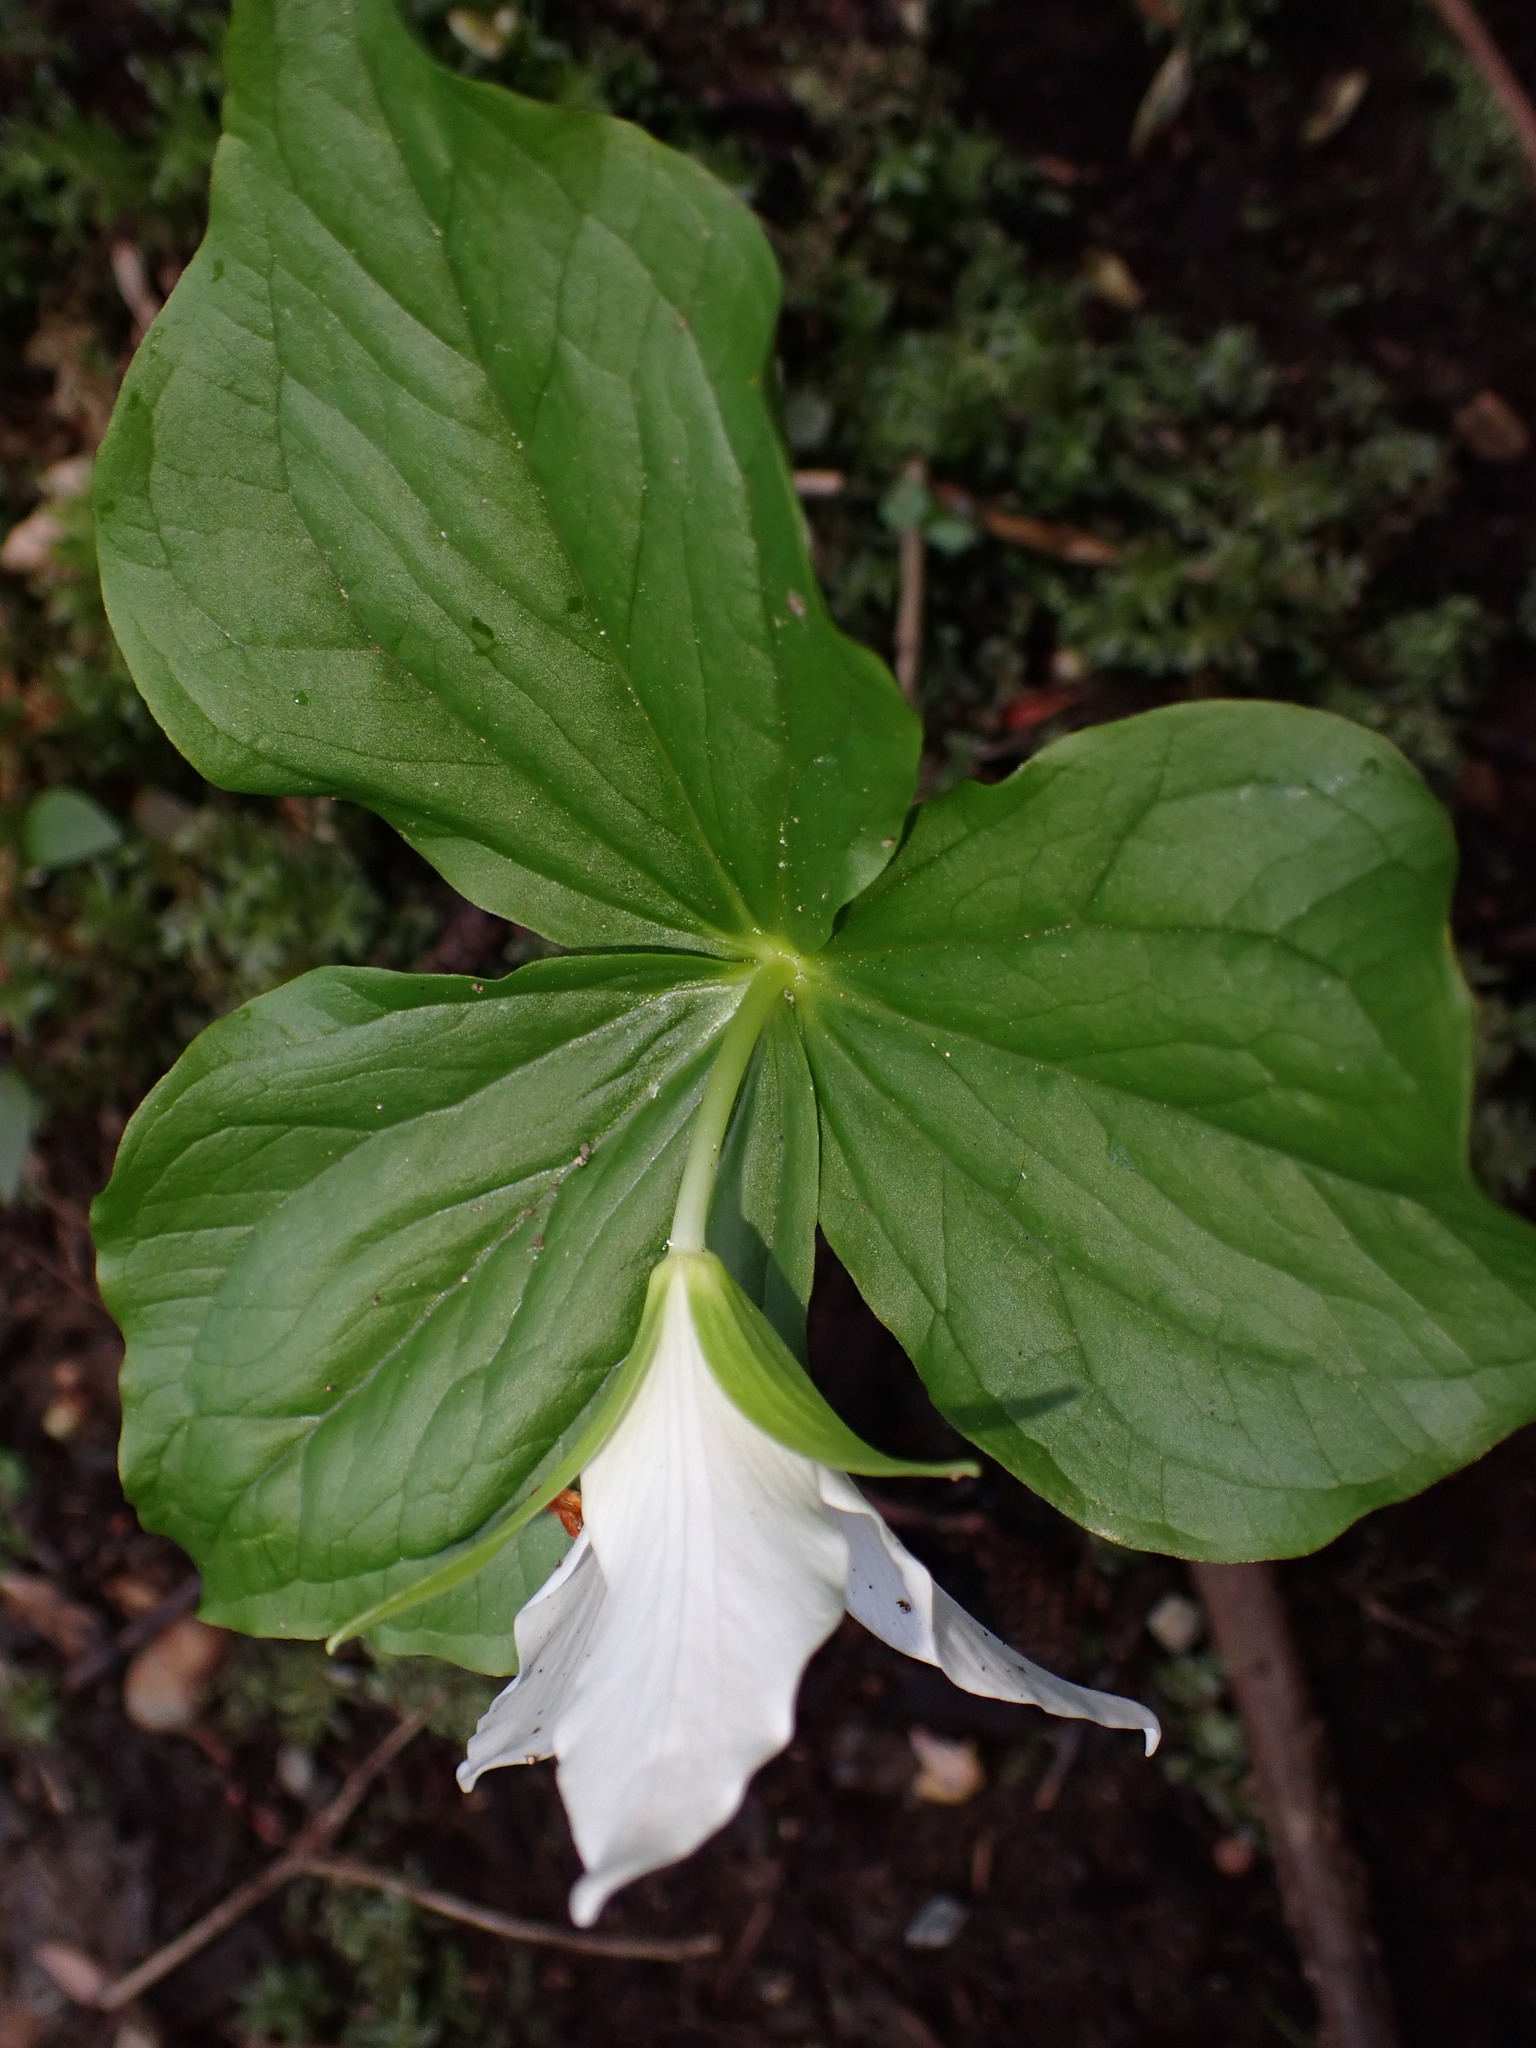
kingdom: Plantae
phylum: Tracheophyta
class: Liliopsida
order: Liliales
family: Melanthiaceae
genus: Trillium
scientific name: Trillium ovatum
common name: Pacific trillium
